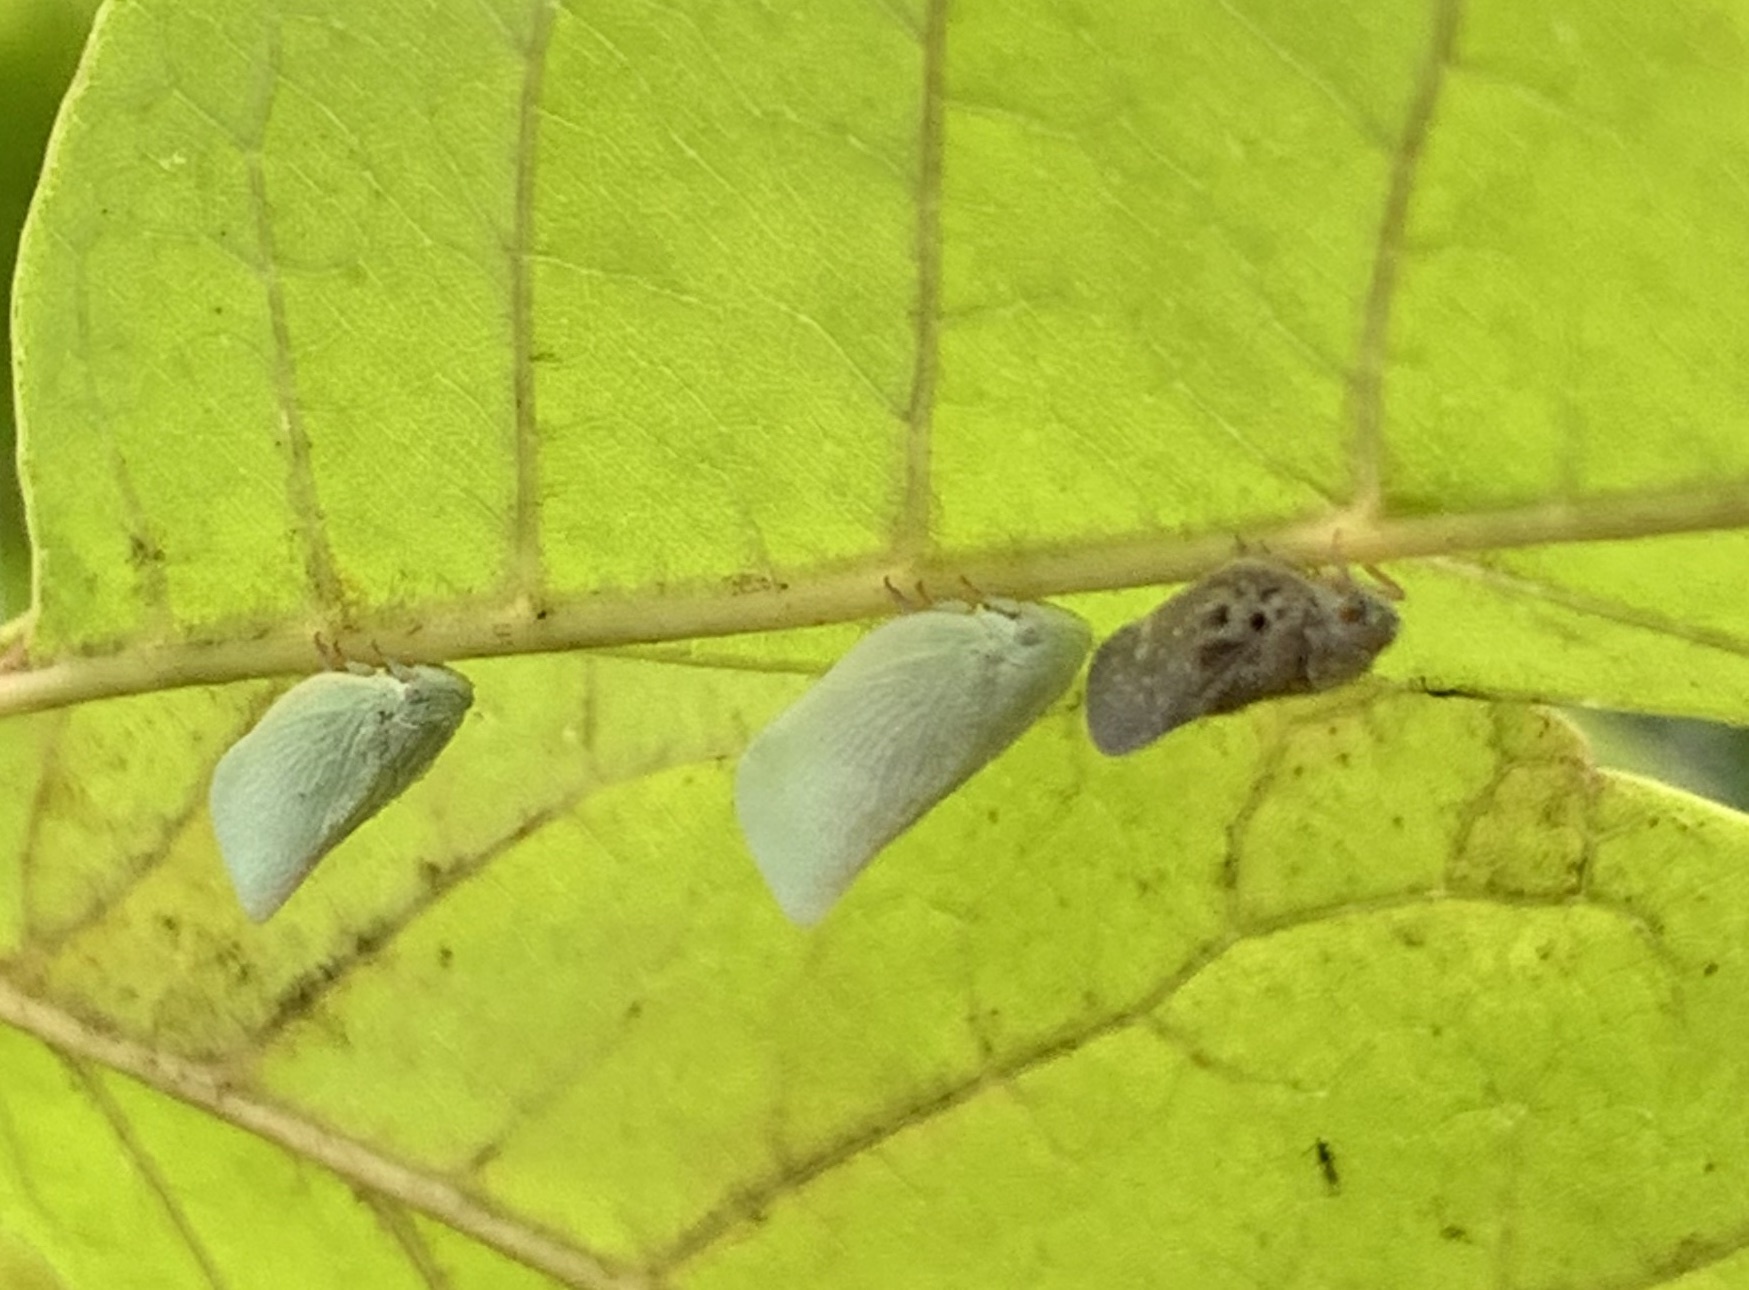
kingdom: Animalia
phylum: Arthropoda
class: Insecta
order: Hemiptera
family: Flatidae
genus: Flatormenis
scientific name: Flatormenis proxima
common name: Northern flatid planthopper
